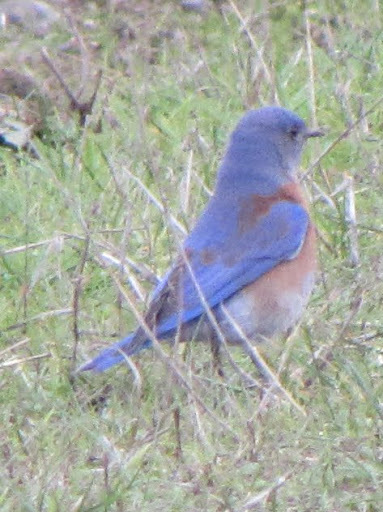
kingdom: Animalia
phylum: Chordata
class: Aves
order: Passeriformes
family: Turdidae
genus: Sialia
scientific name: Sialia mexicana
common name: Western bluebird
